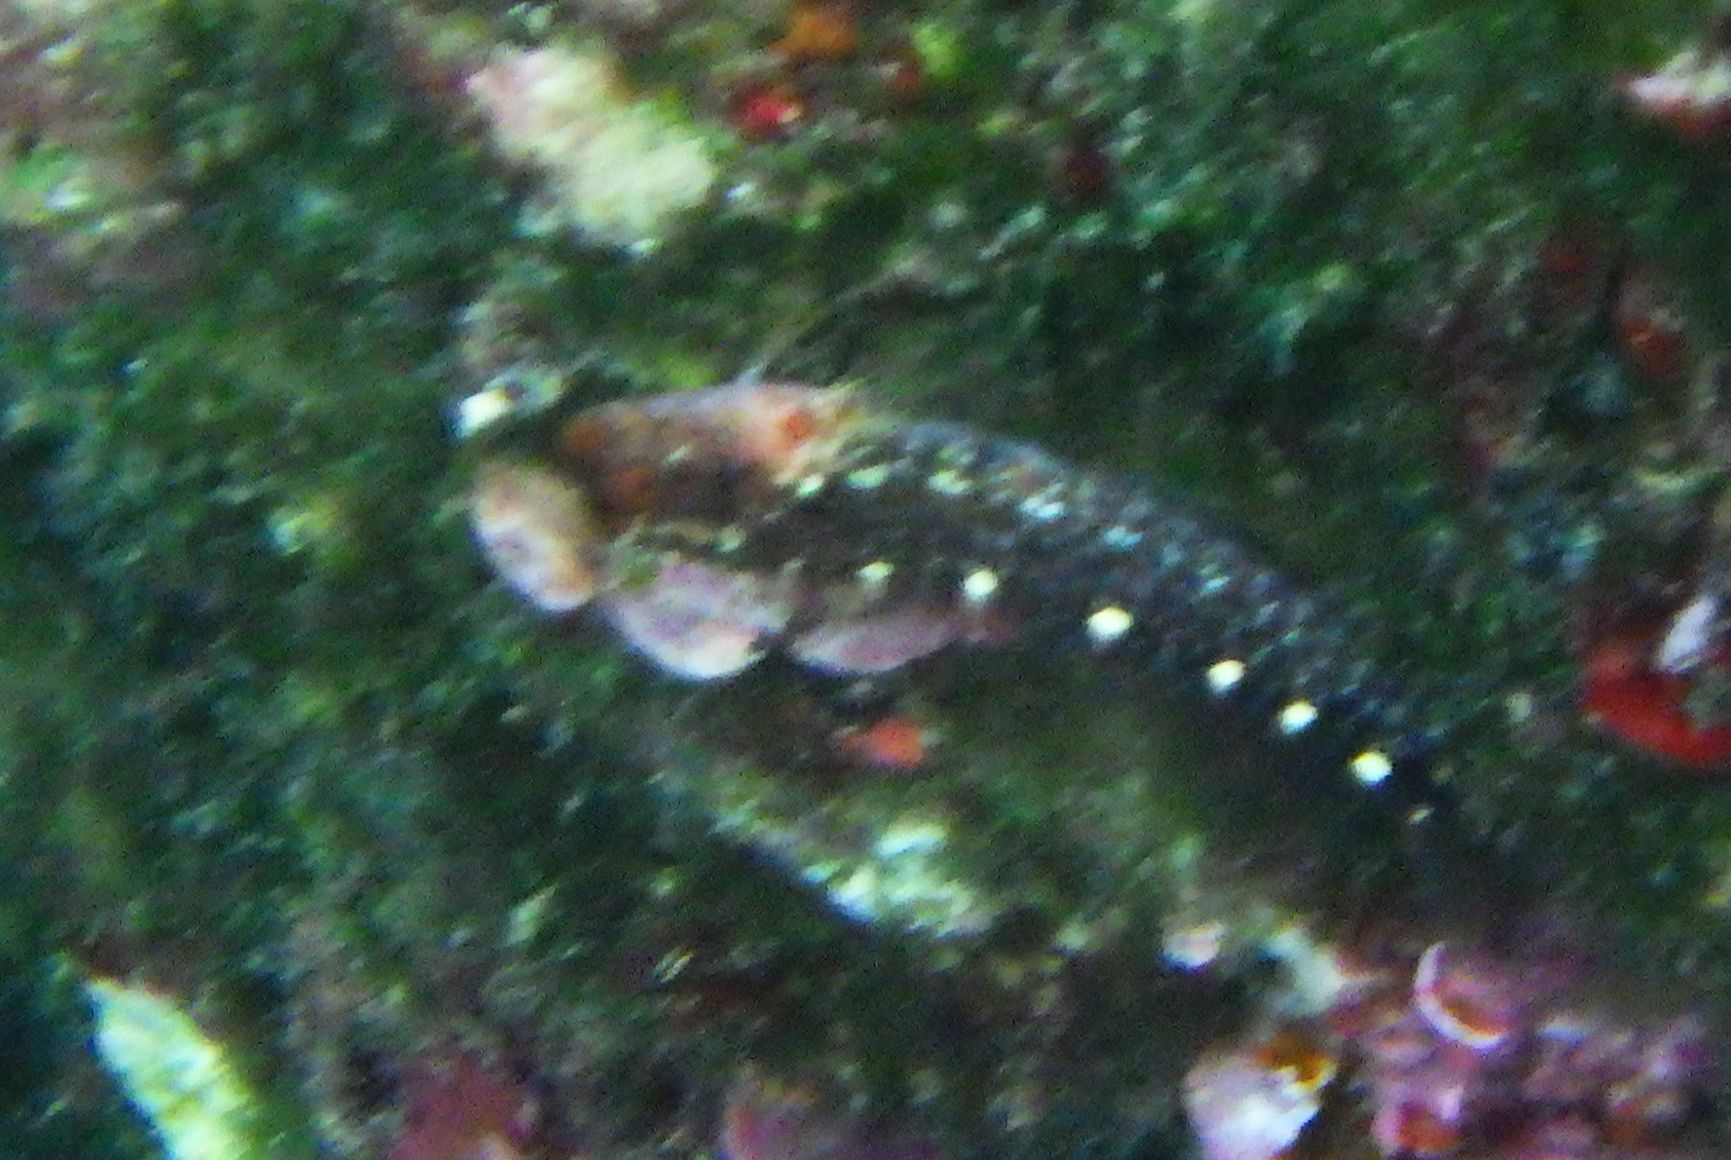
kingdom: Animalia
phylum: Chordata
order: Perciformes
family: Blenniidae
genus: Parablennius
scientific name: Parablennius zvonimiri
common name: Red blenny
